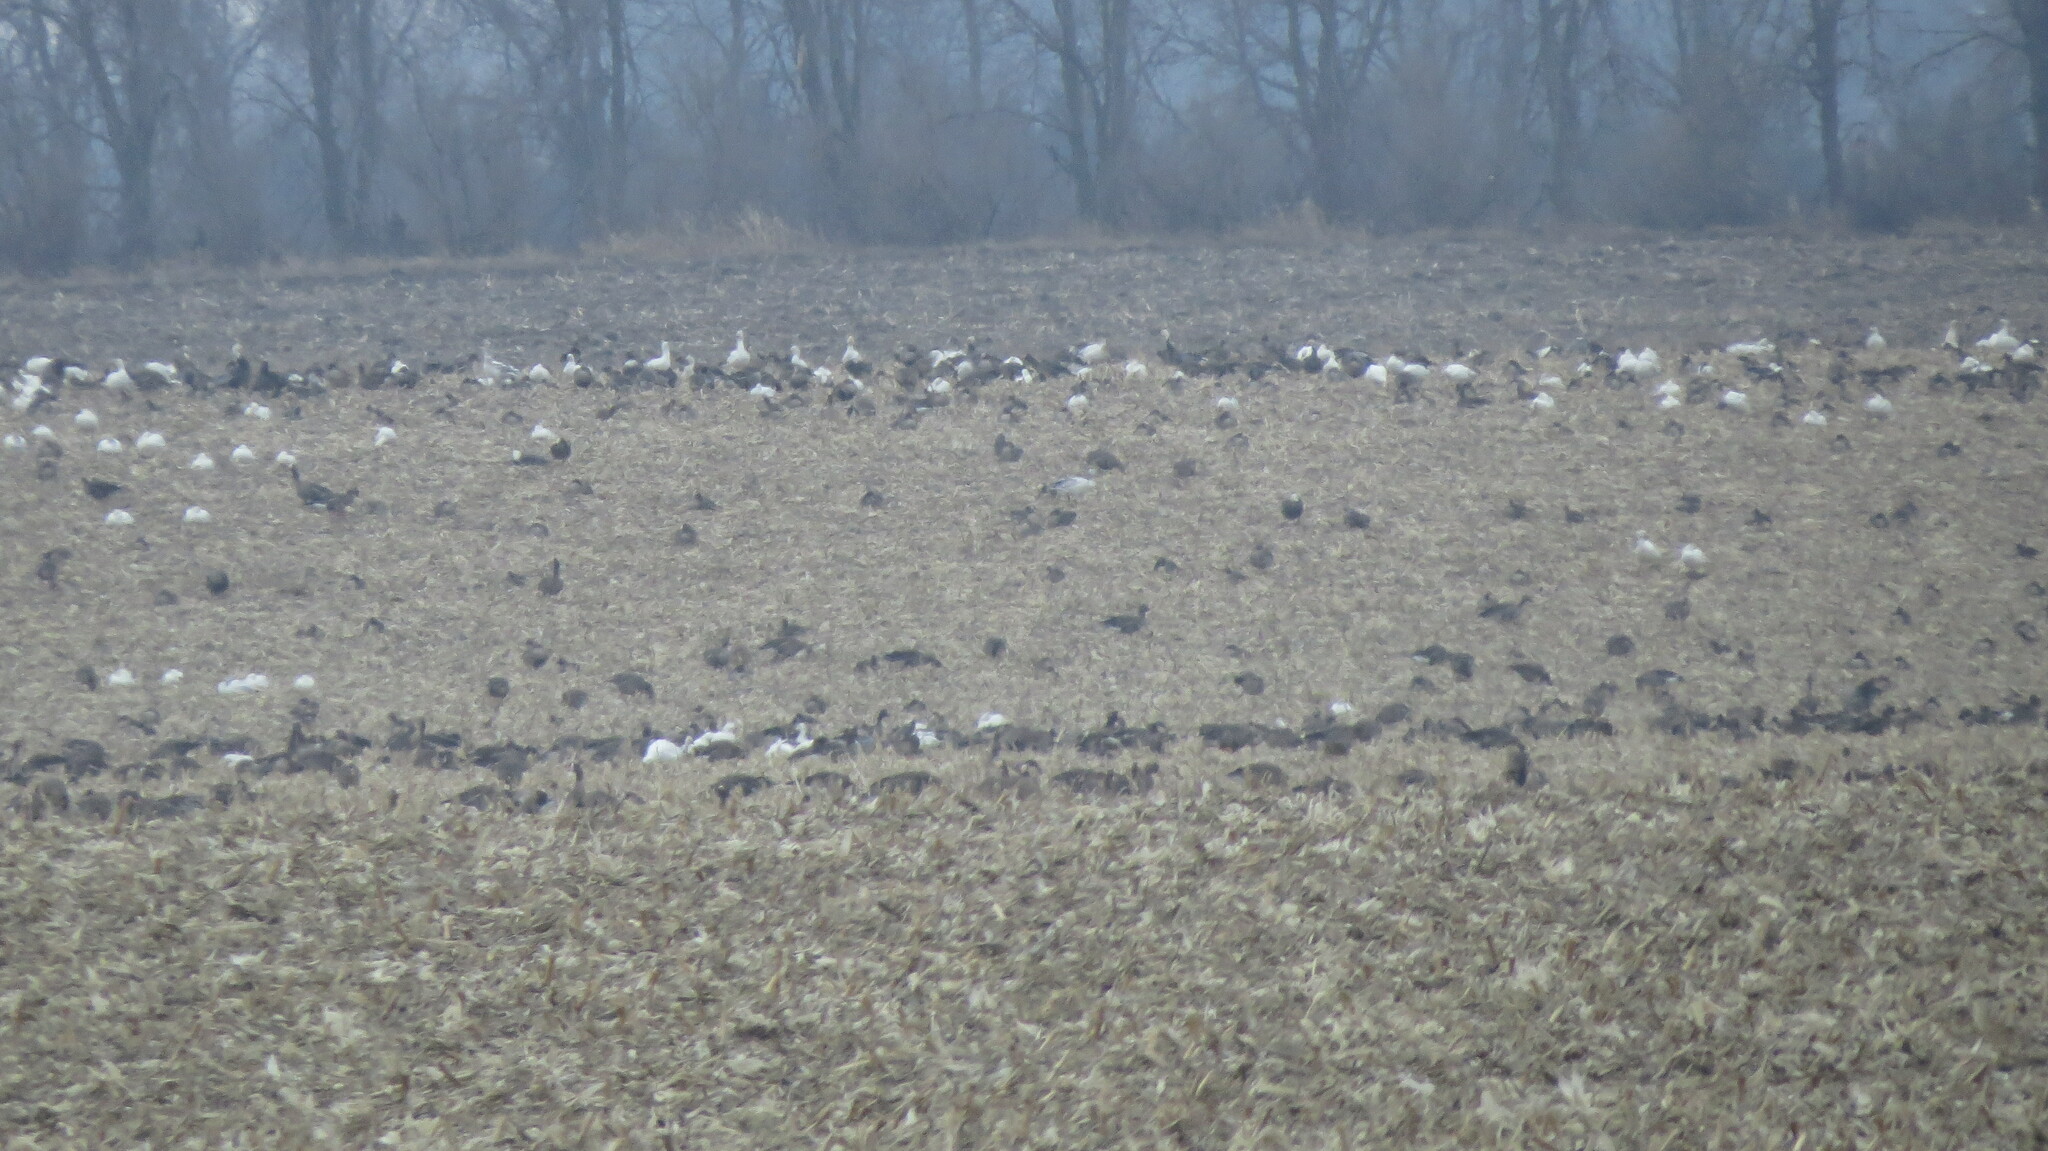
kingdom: Animalia
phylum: Chordata
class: Aves
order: Anseriformes
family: Anatidae
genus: Anser
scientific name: Anser caerulescens
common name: Snow goose
